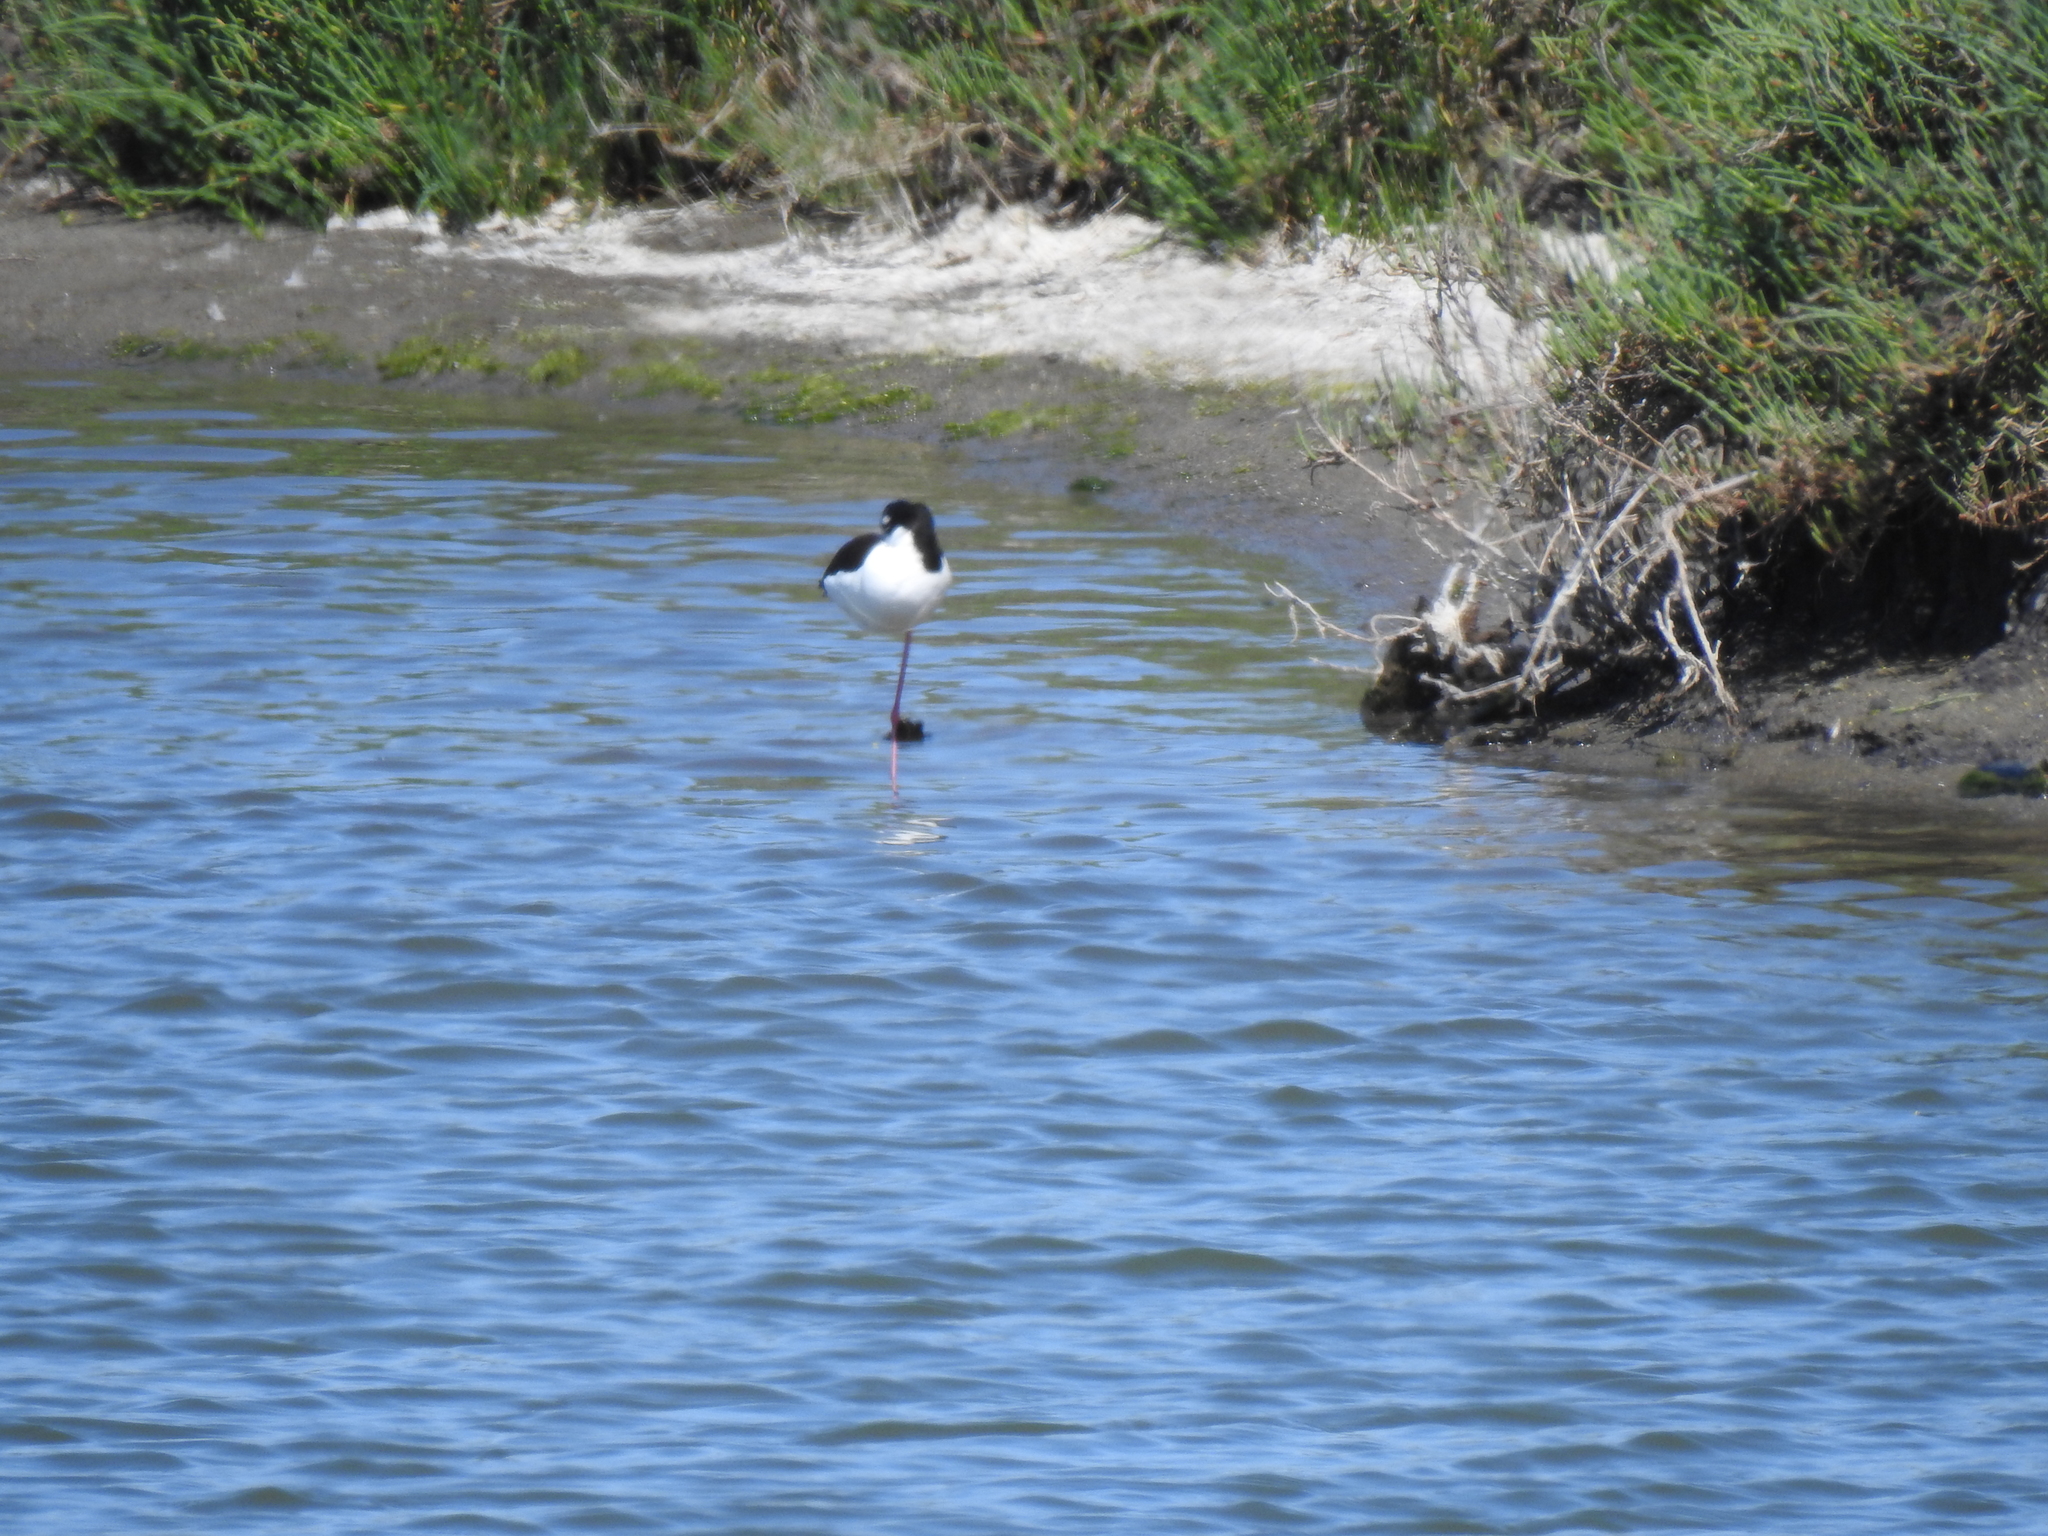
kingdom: Animalia
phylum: Chordata
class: Aves
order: Charadriiformes
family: Recurvirostridae
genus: Himantopus
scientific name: Himantopus mexicanus
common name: Black-necked stilt
